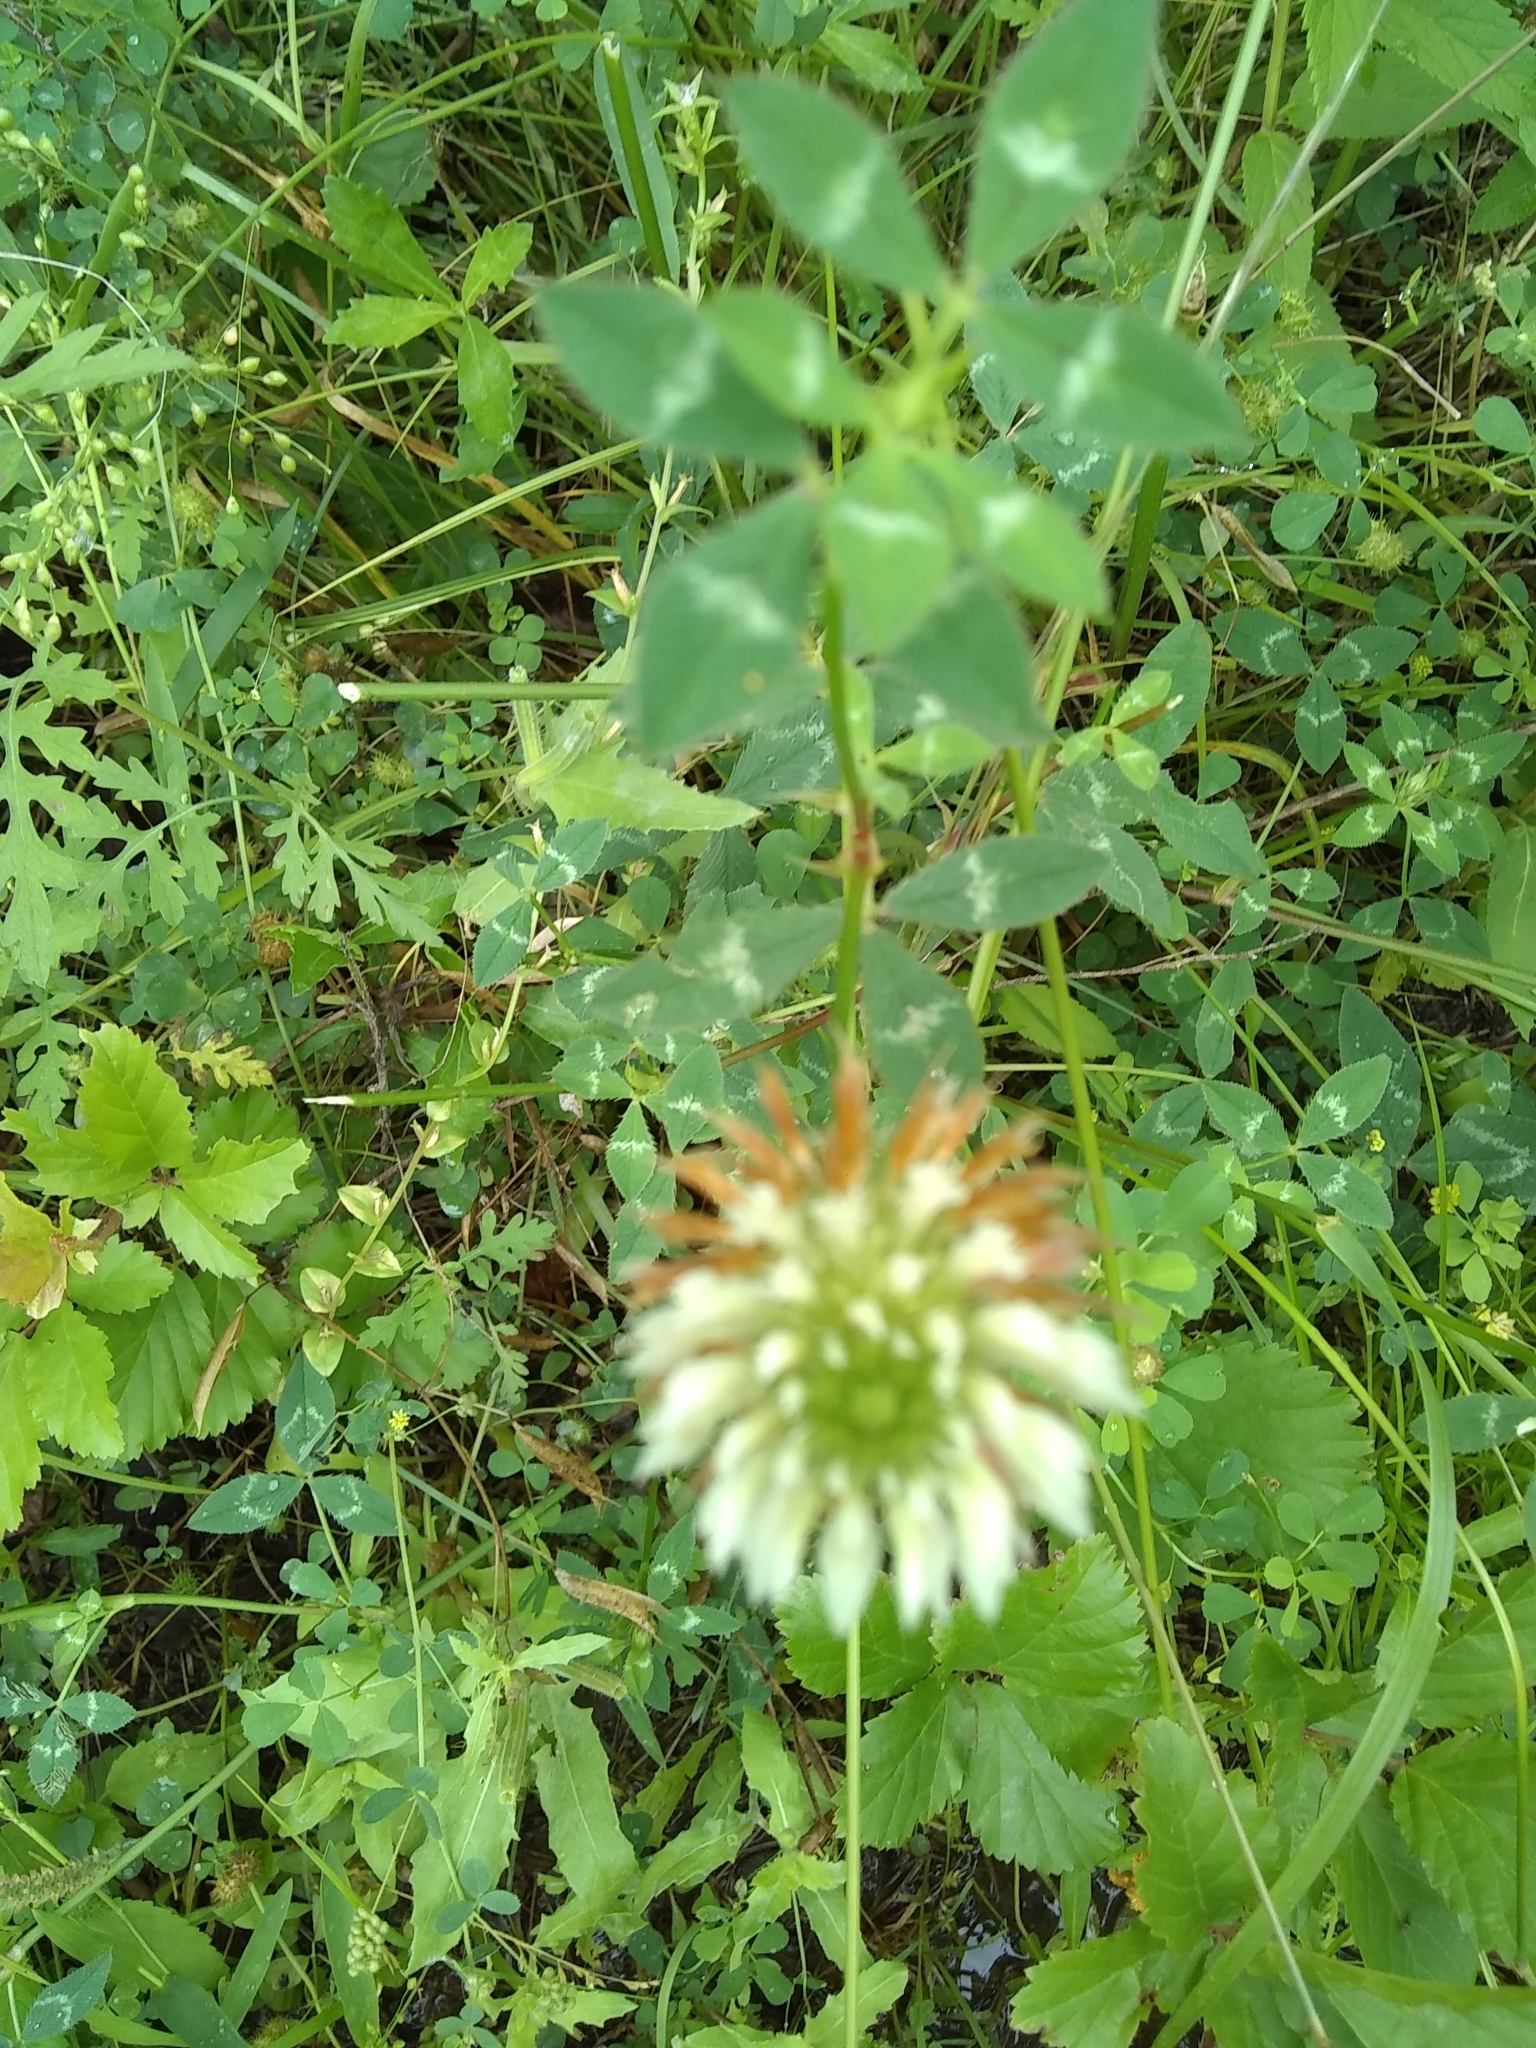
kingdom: Plantae
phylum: Tracheophyta
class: Magnoliopsida
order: Fabales
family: Fabaceae
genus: Trifolium
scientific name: Trifolium vesiculosum
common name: Arrowleaf clover
